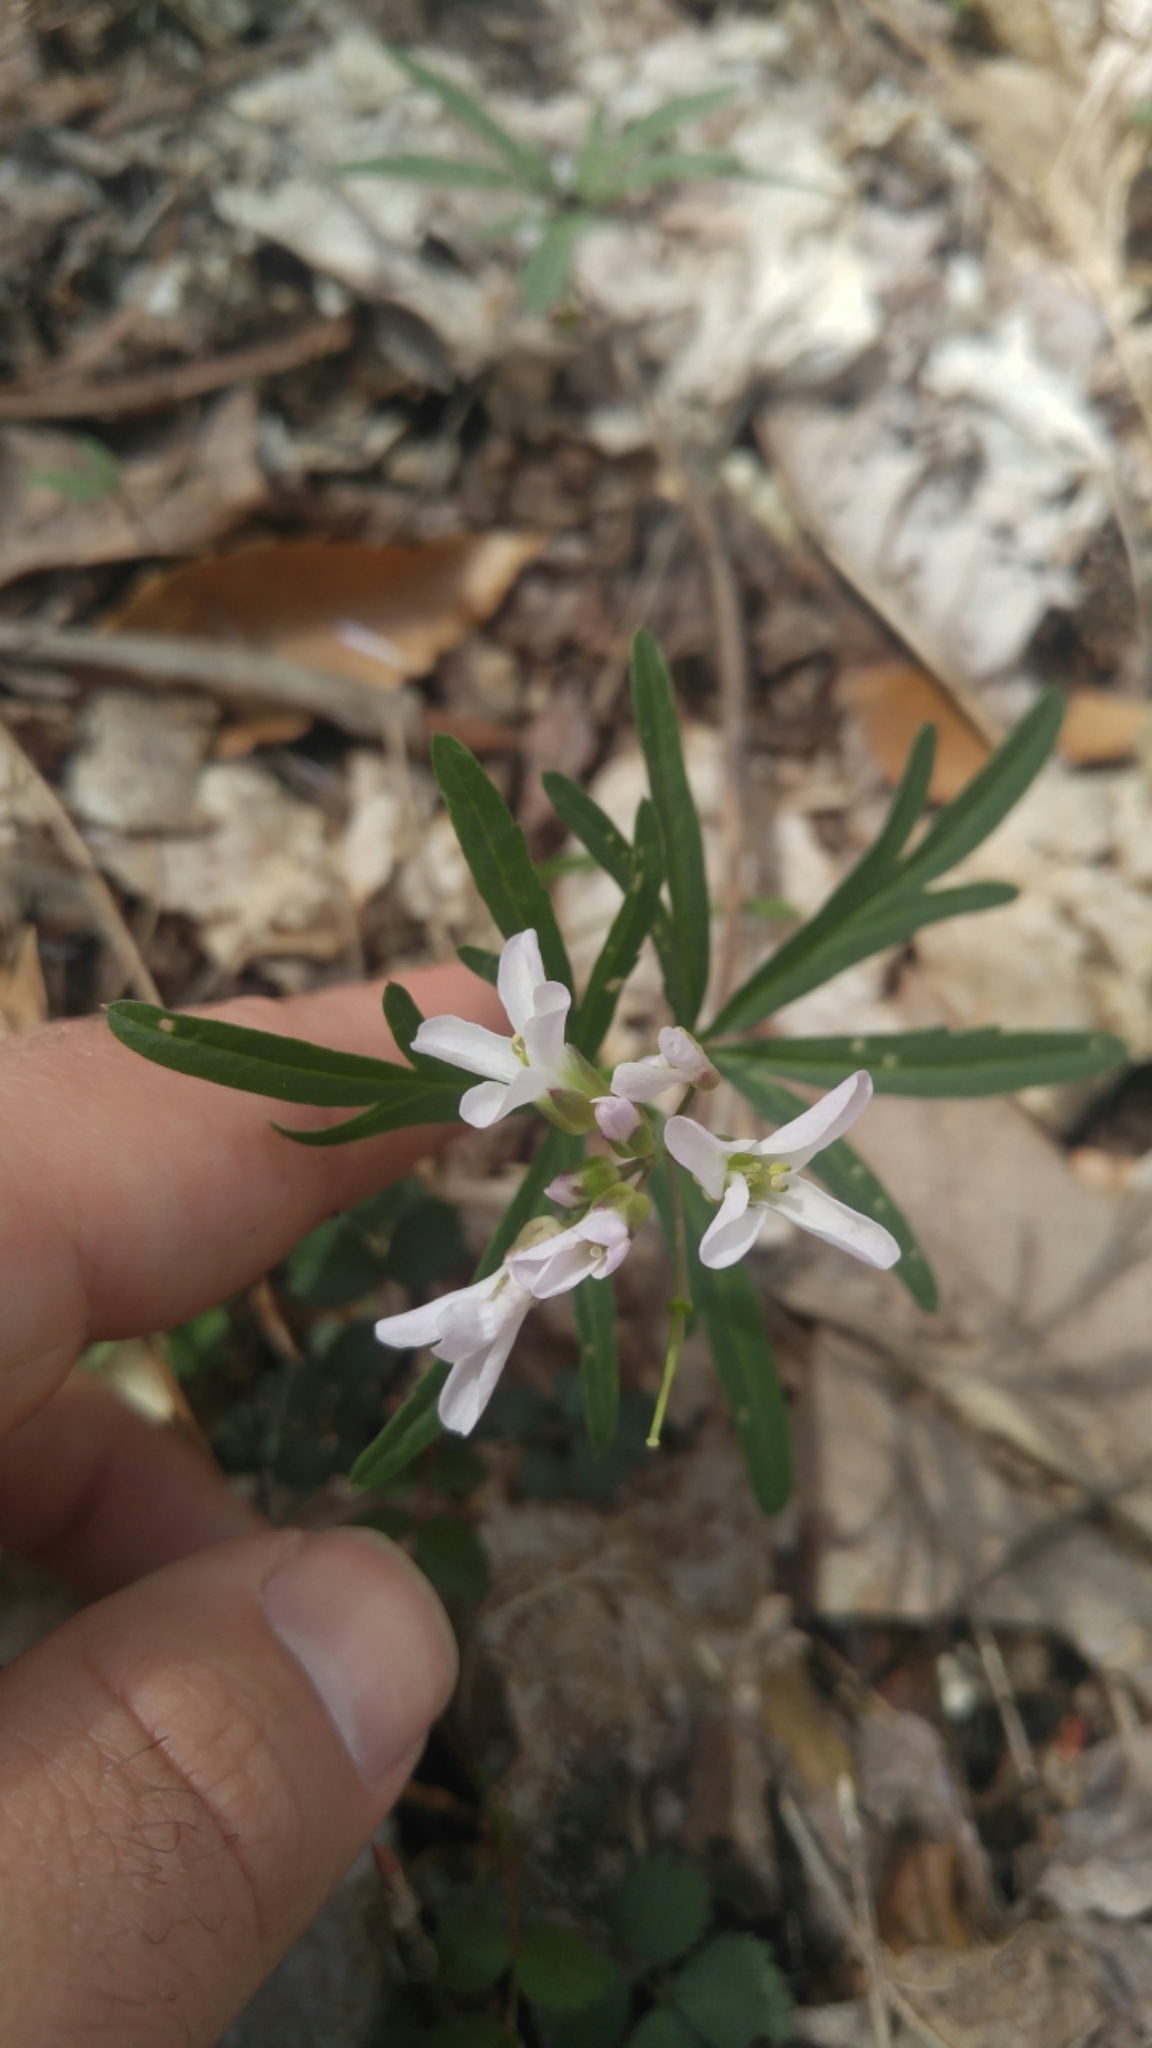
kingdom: Plantae
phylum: Tracheophyta
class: Magnoliopsida
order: Brassicales
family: Brassicaceae
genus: Cardamine
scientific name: Cardamine concatenata
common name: Cut-leaf toothcup
